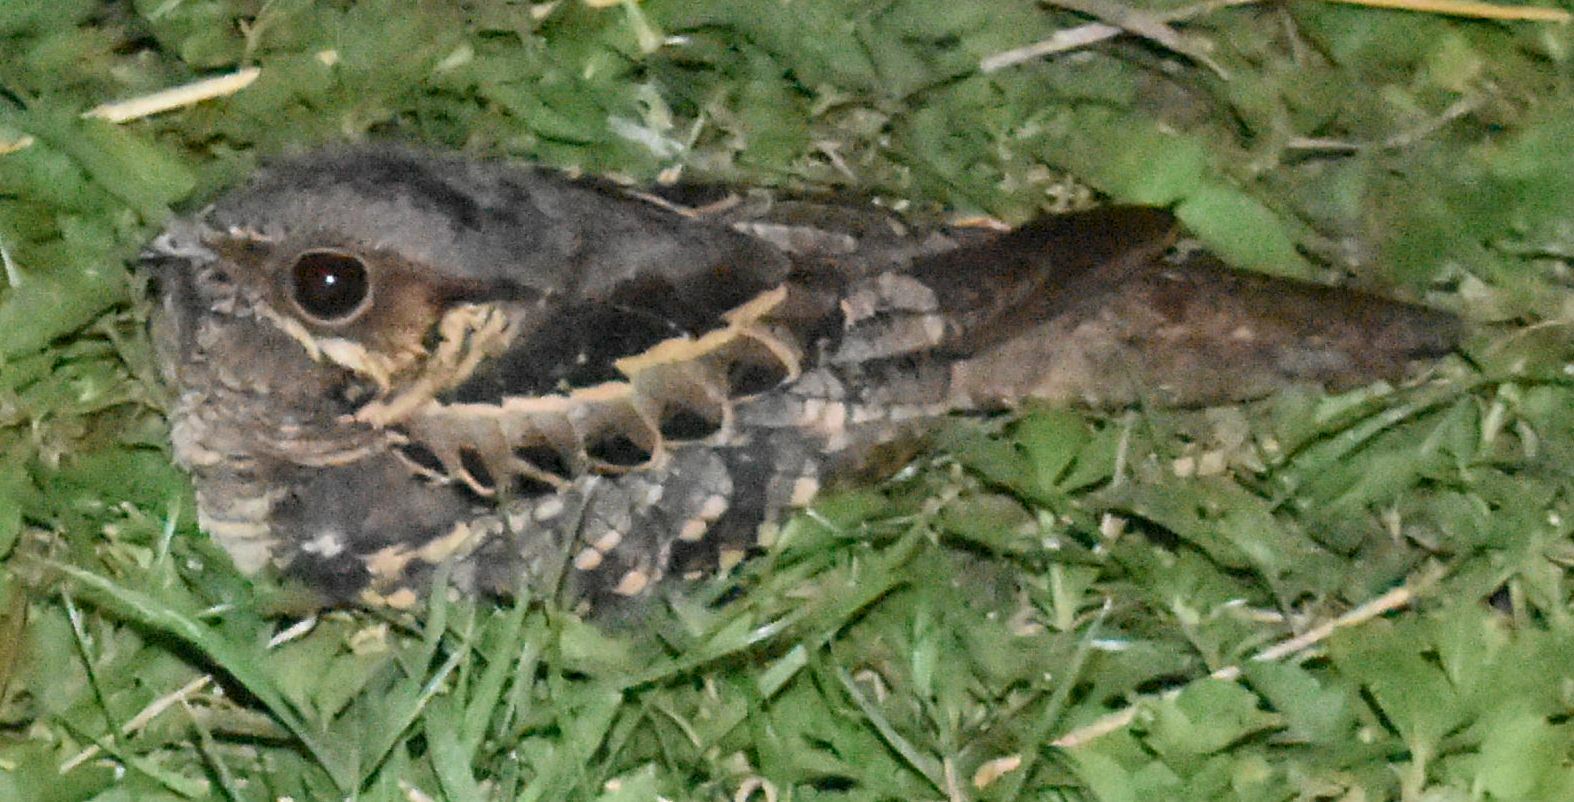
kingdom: Animalia
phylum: Chordata
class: Aves
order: Caprimulgiformes
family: Caprimulgidae
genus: Nyctidromus
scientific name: Nyctidromus albicollis
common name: Pauraque
